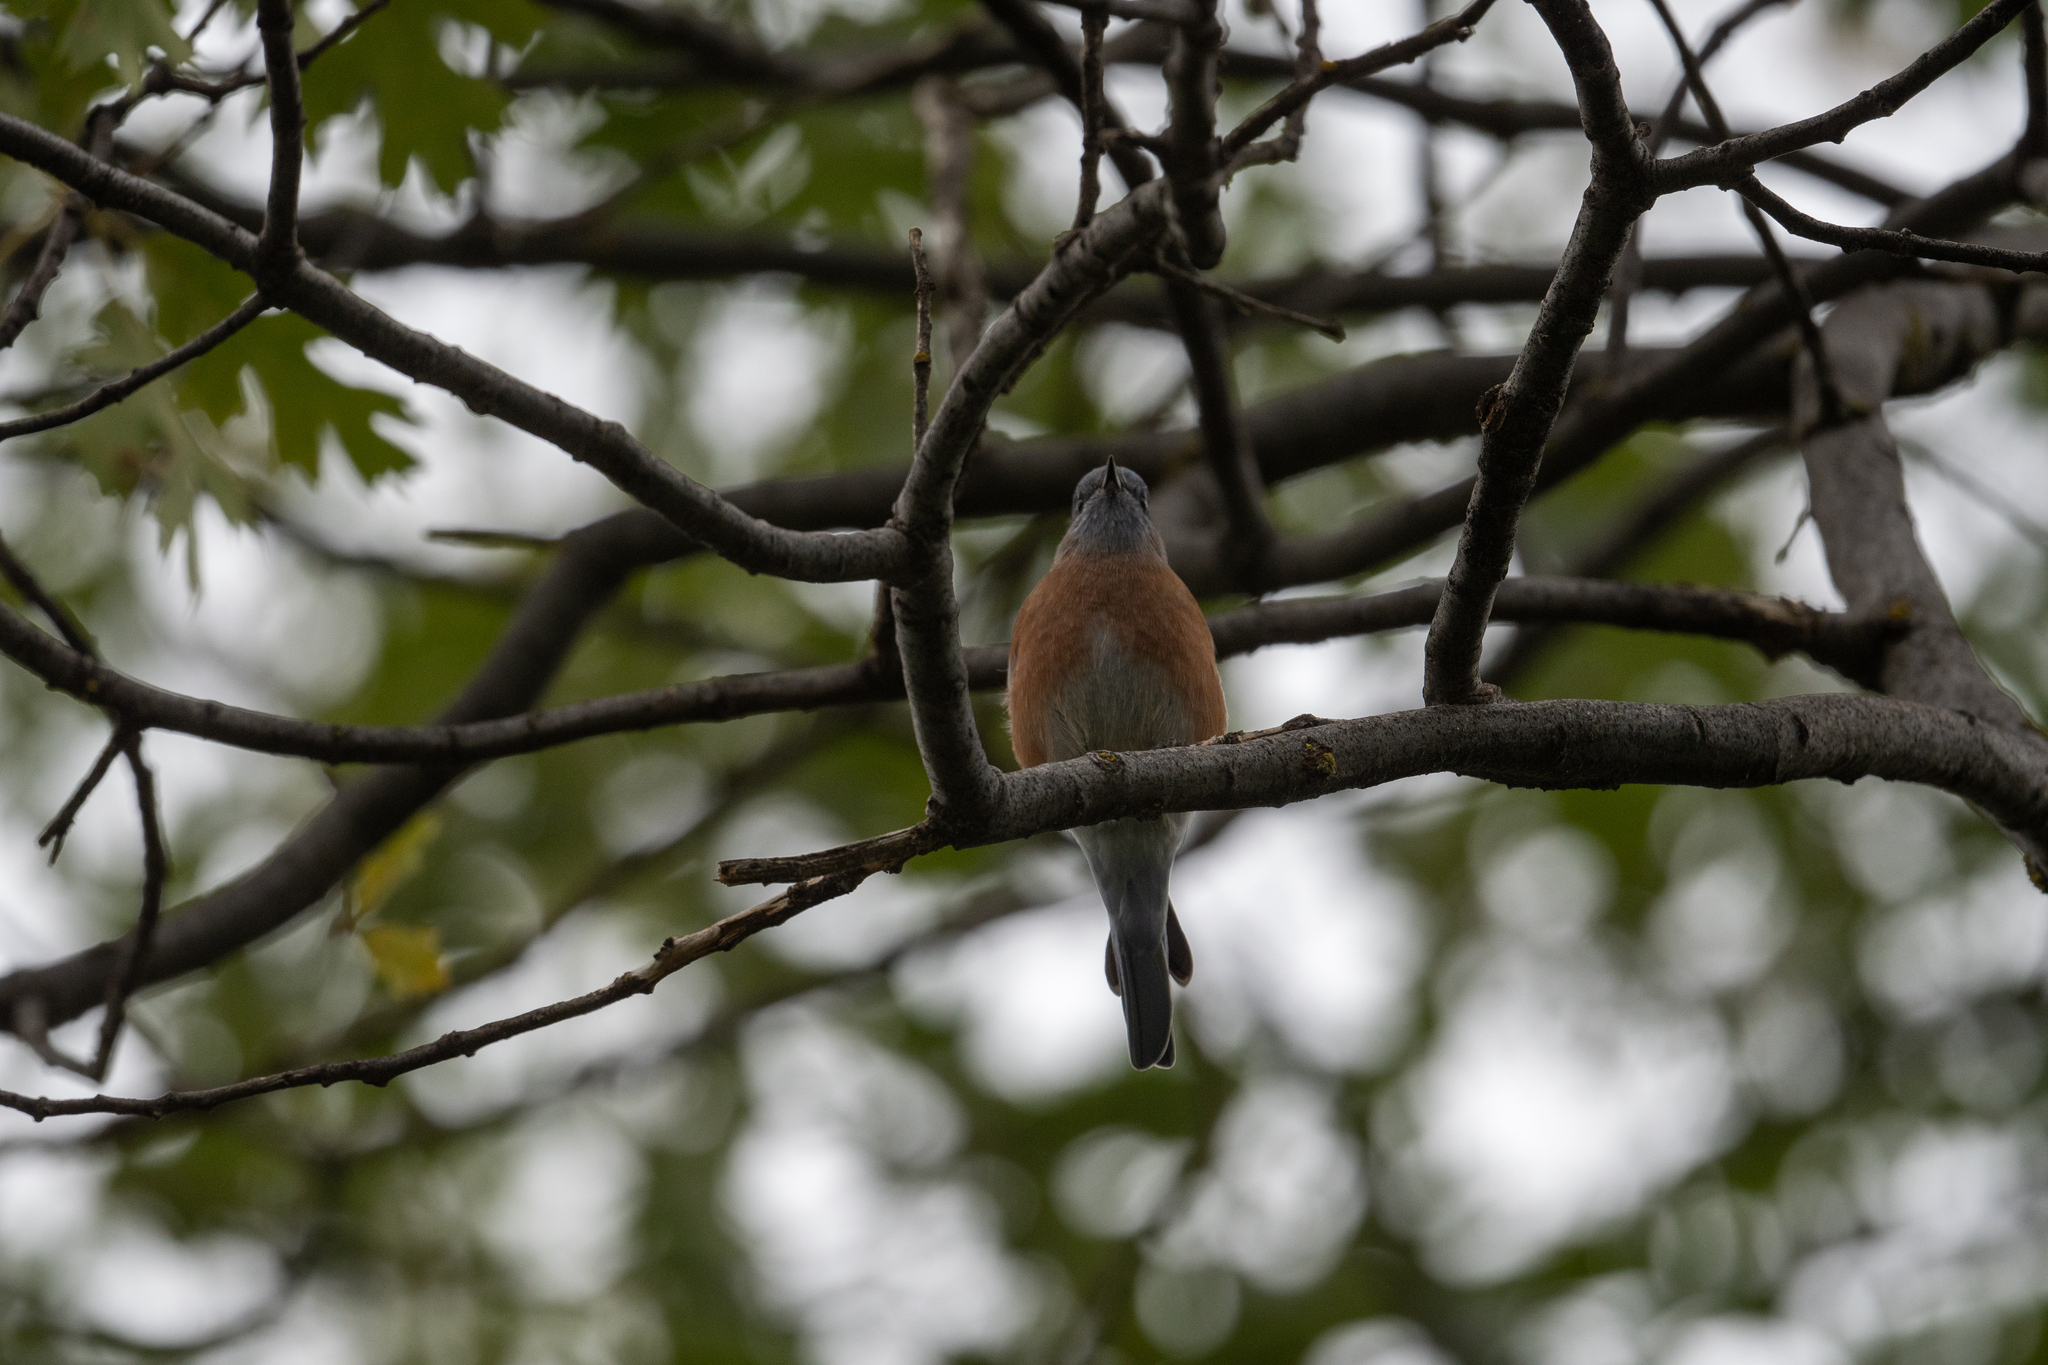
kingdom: Animalia
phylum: Chordata
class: Aves
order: Passeriformes
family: Turdidae
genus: Sialia
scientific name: Sialia mexicana
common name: Western bluebird
